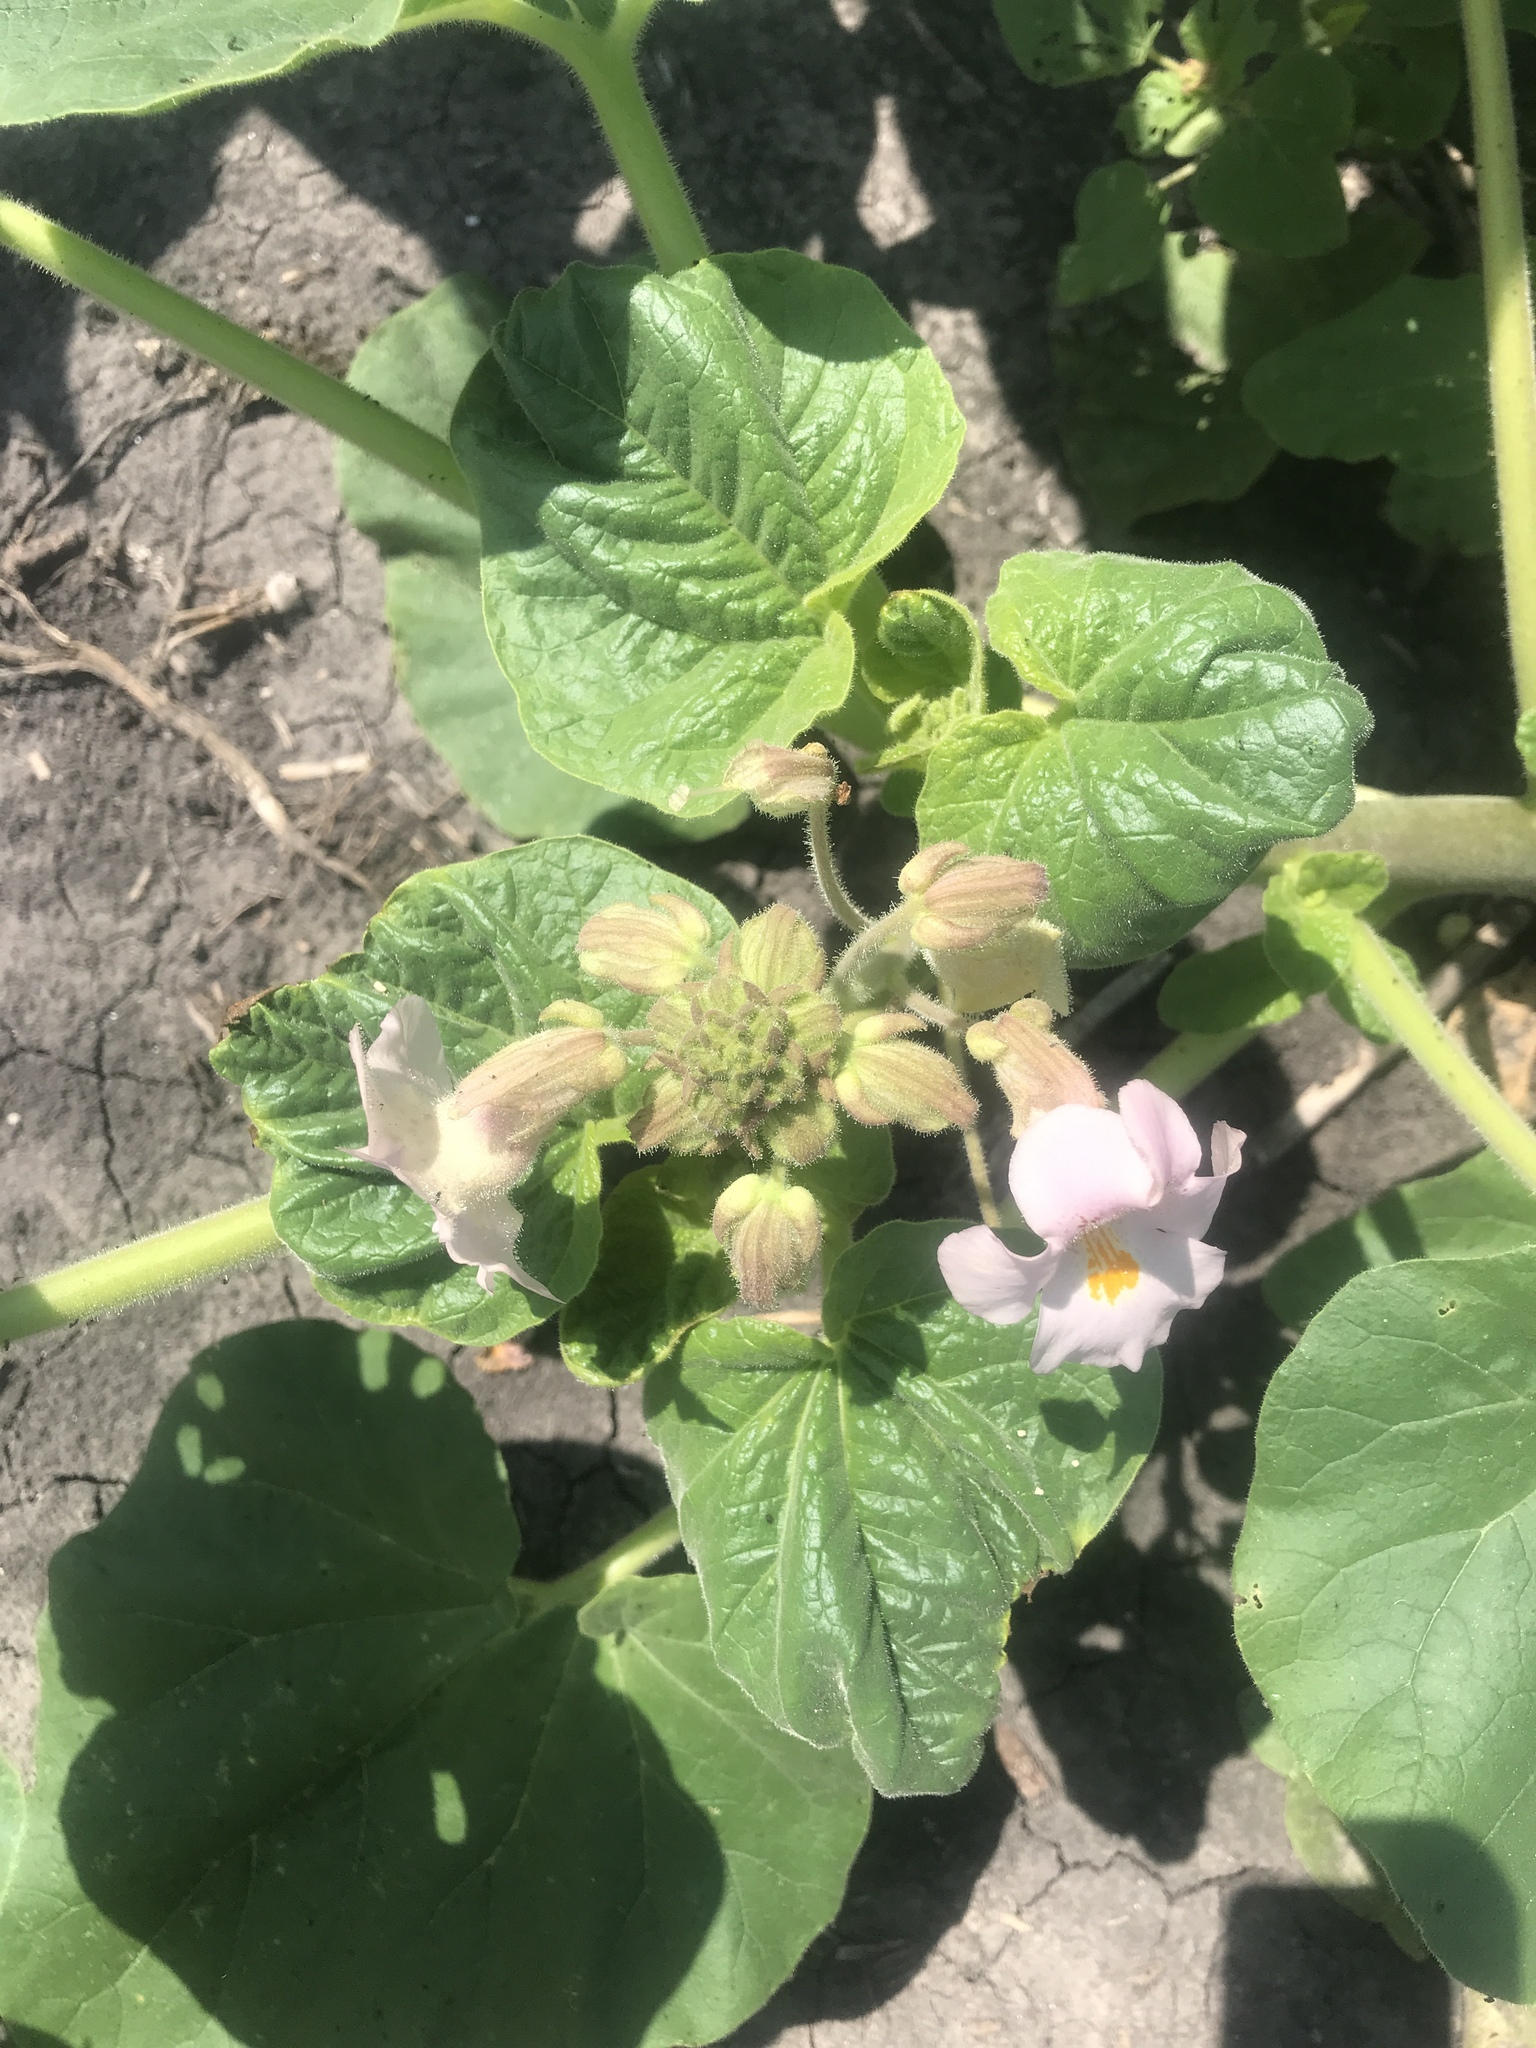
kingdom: Plantae
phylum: Tracheophyta
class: Magnoliopsida
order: Lamiales
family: Martyniaceae
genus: Proboscidea
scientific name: Proboscidea louisianica
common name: Elephant tusks
